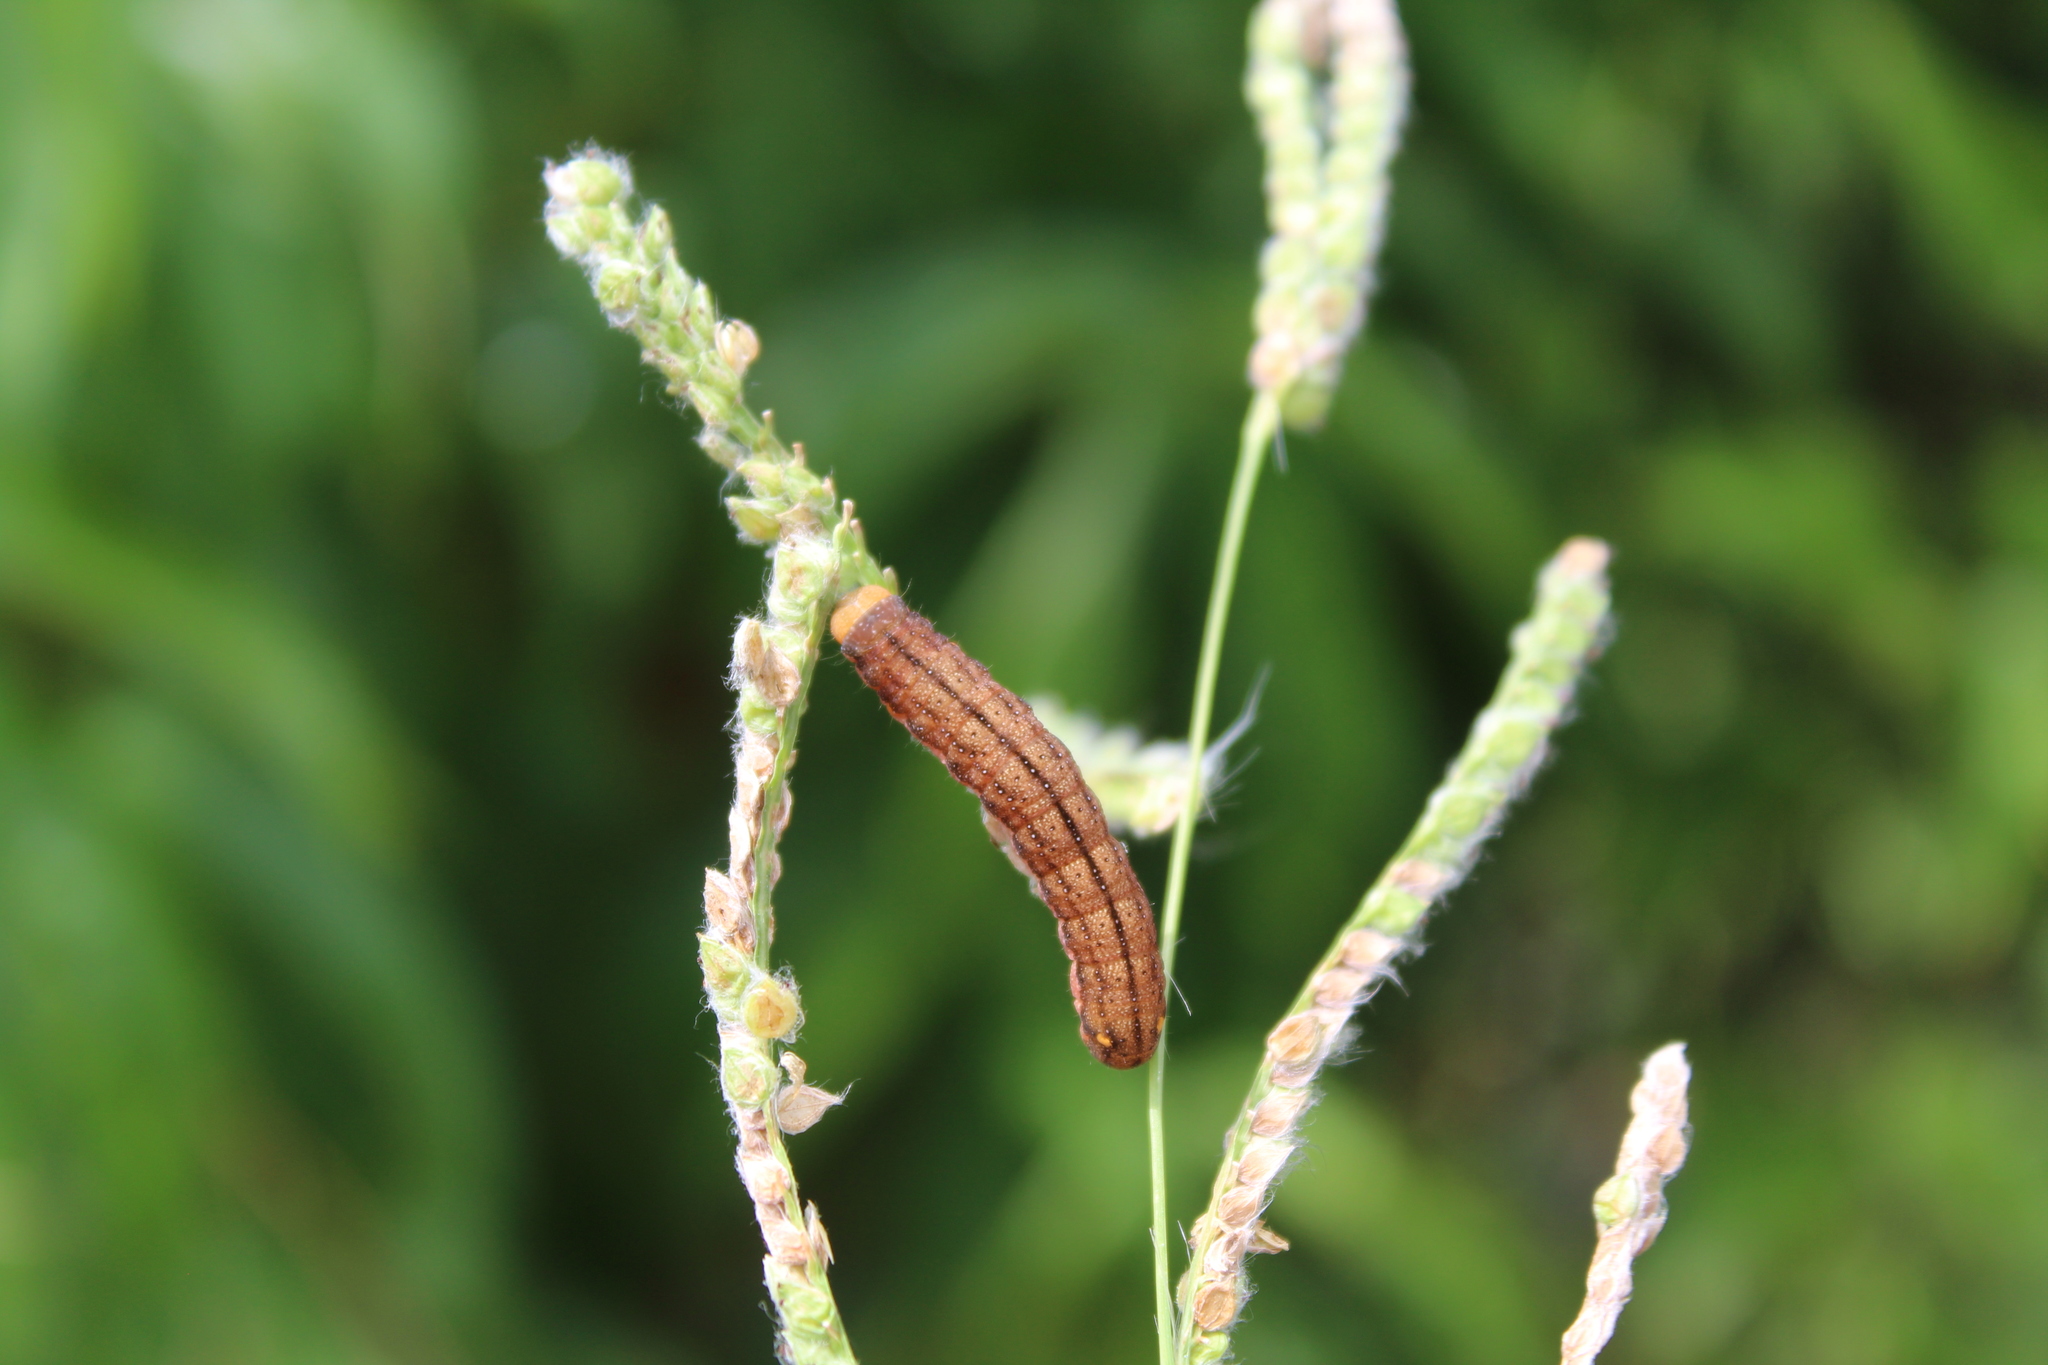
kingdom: Animalia
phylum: Arthropoda
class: Insecta
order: Lepidoptera
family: Noctuidae
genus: Trachea
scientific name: Trachea atriplicis
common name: Orache moth
